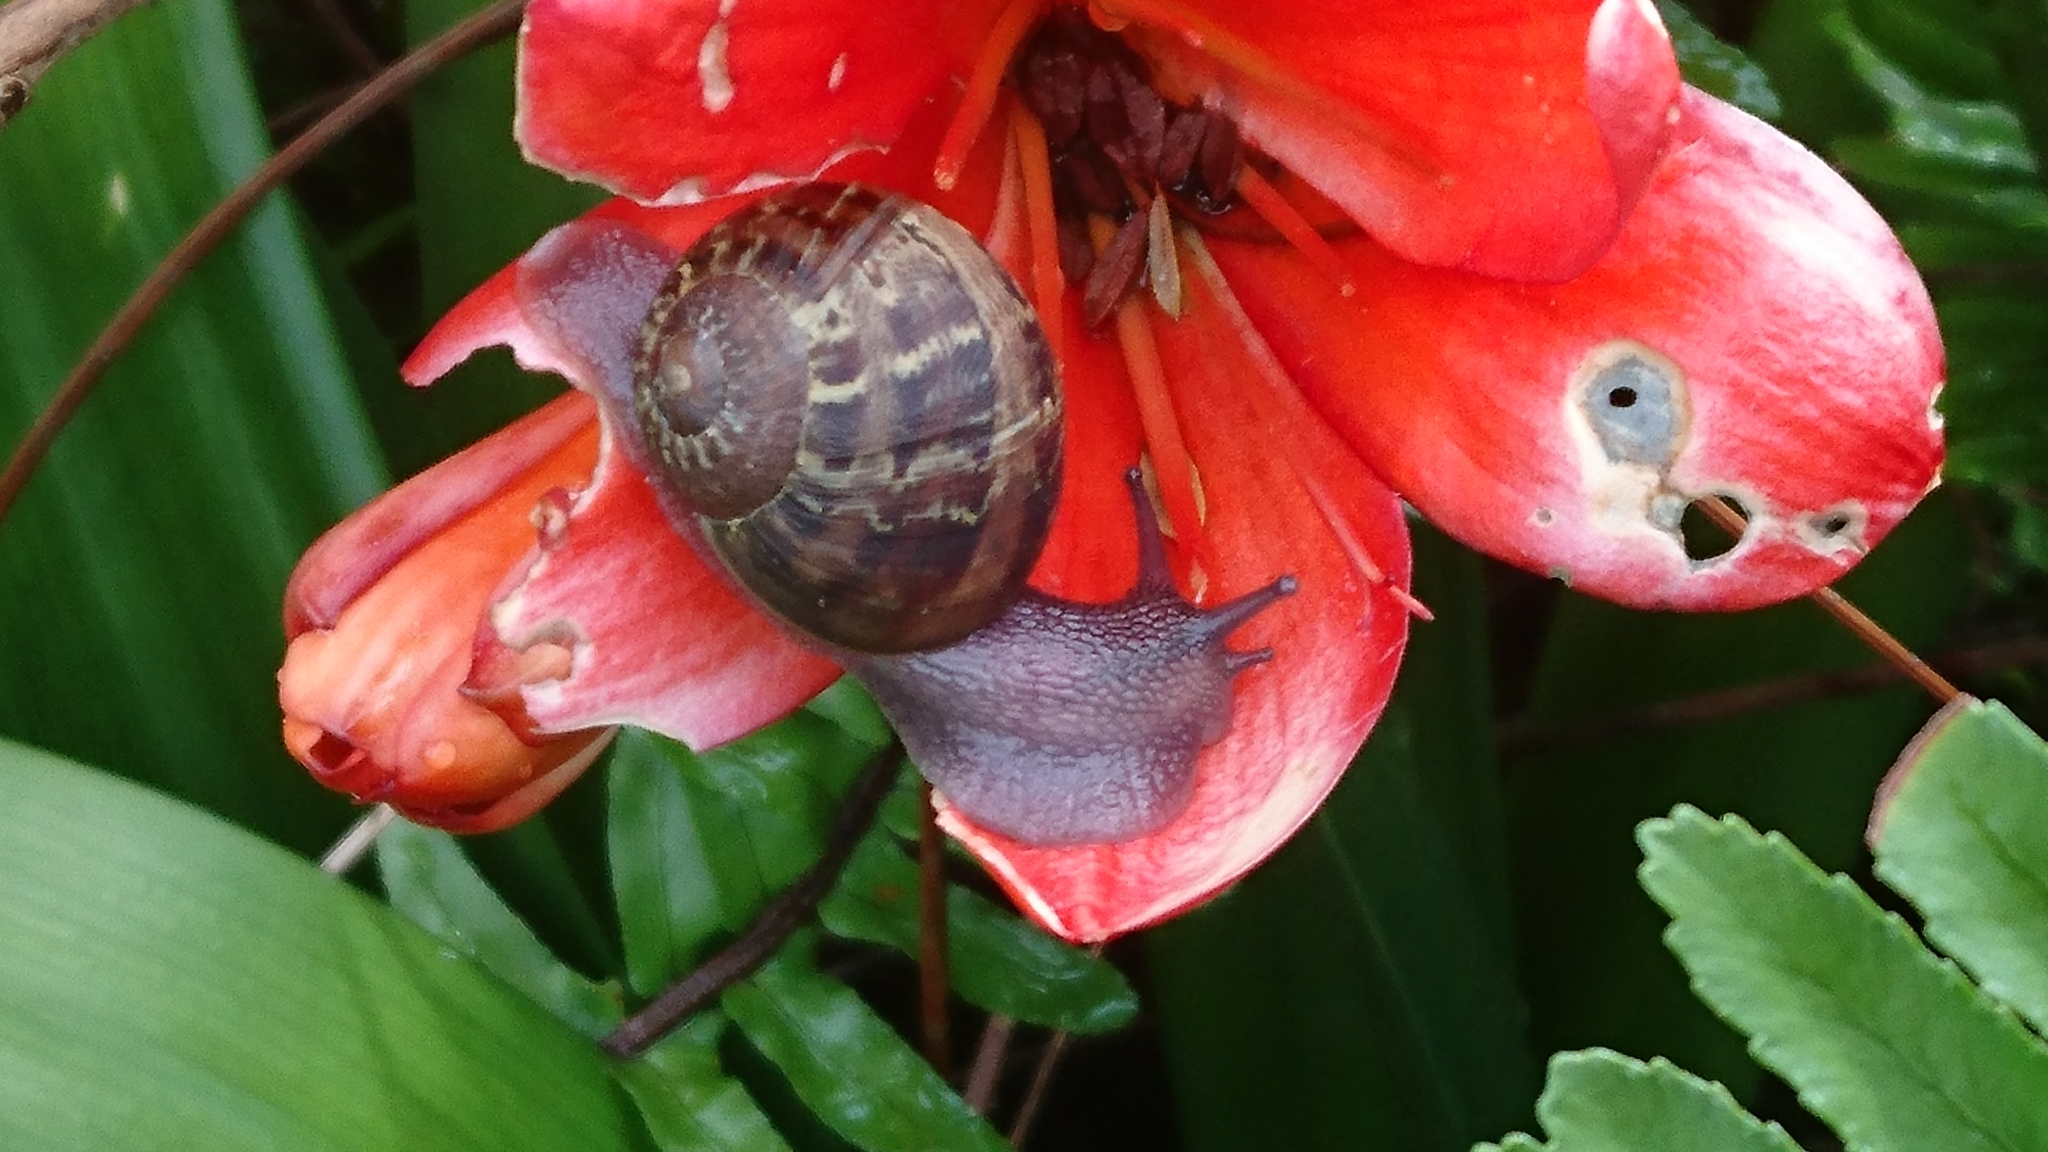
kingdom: Animalia
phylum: Mollusca
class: Gastropoda
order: Stylommatophora
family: Helicidae
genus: Cornu
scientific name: Cornu aspersum
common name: Brown garden snail
